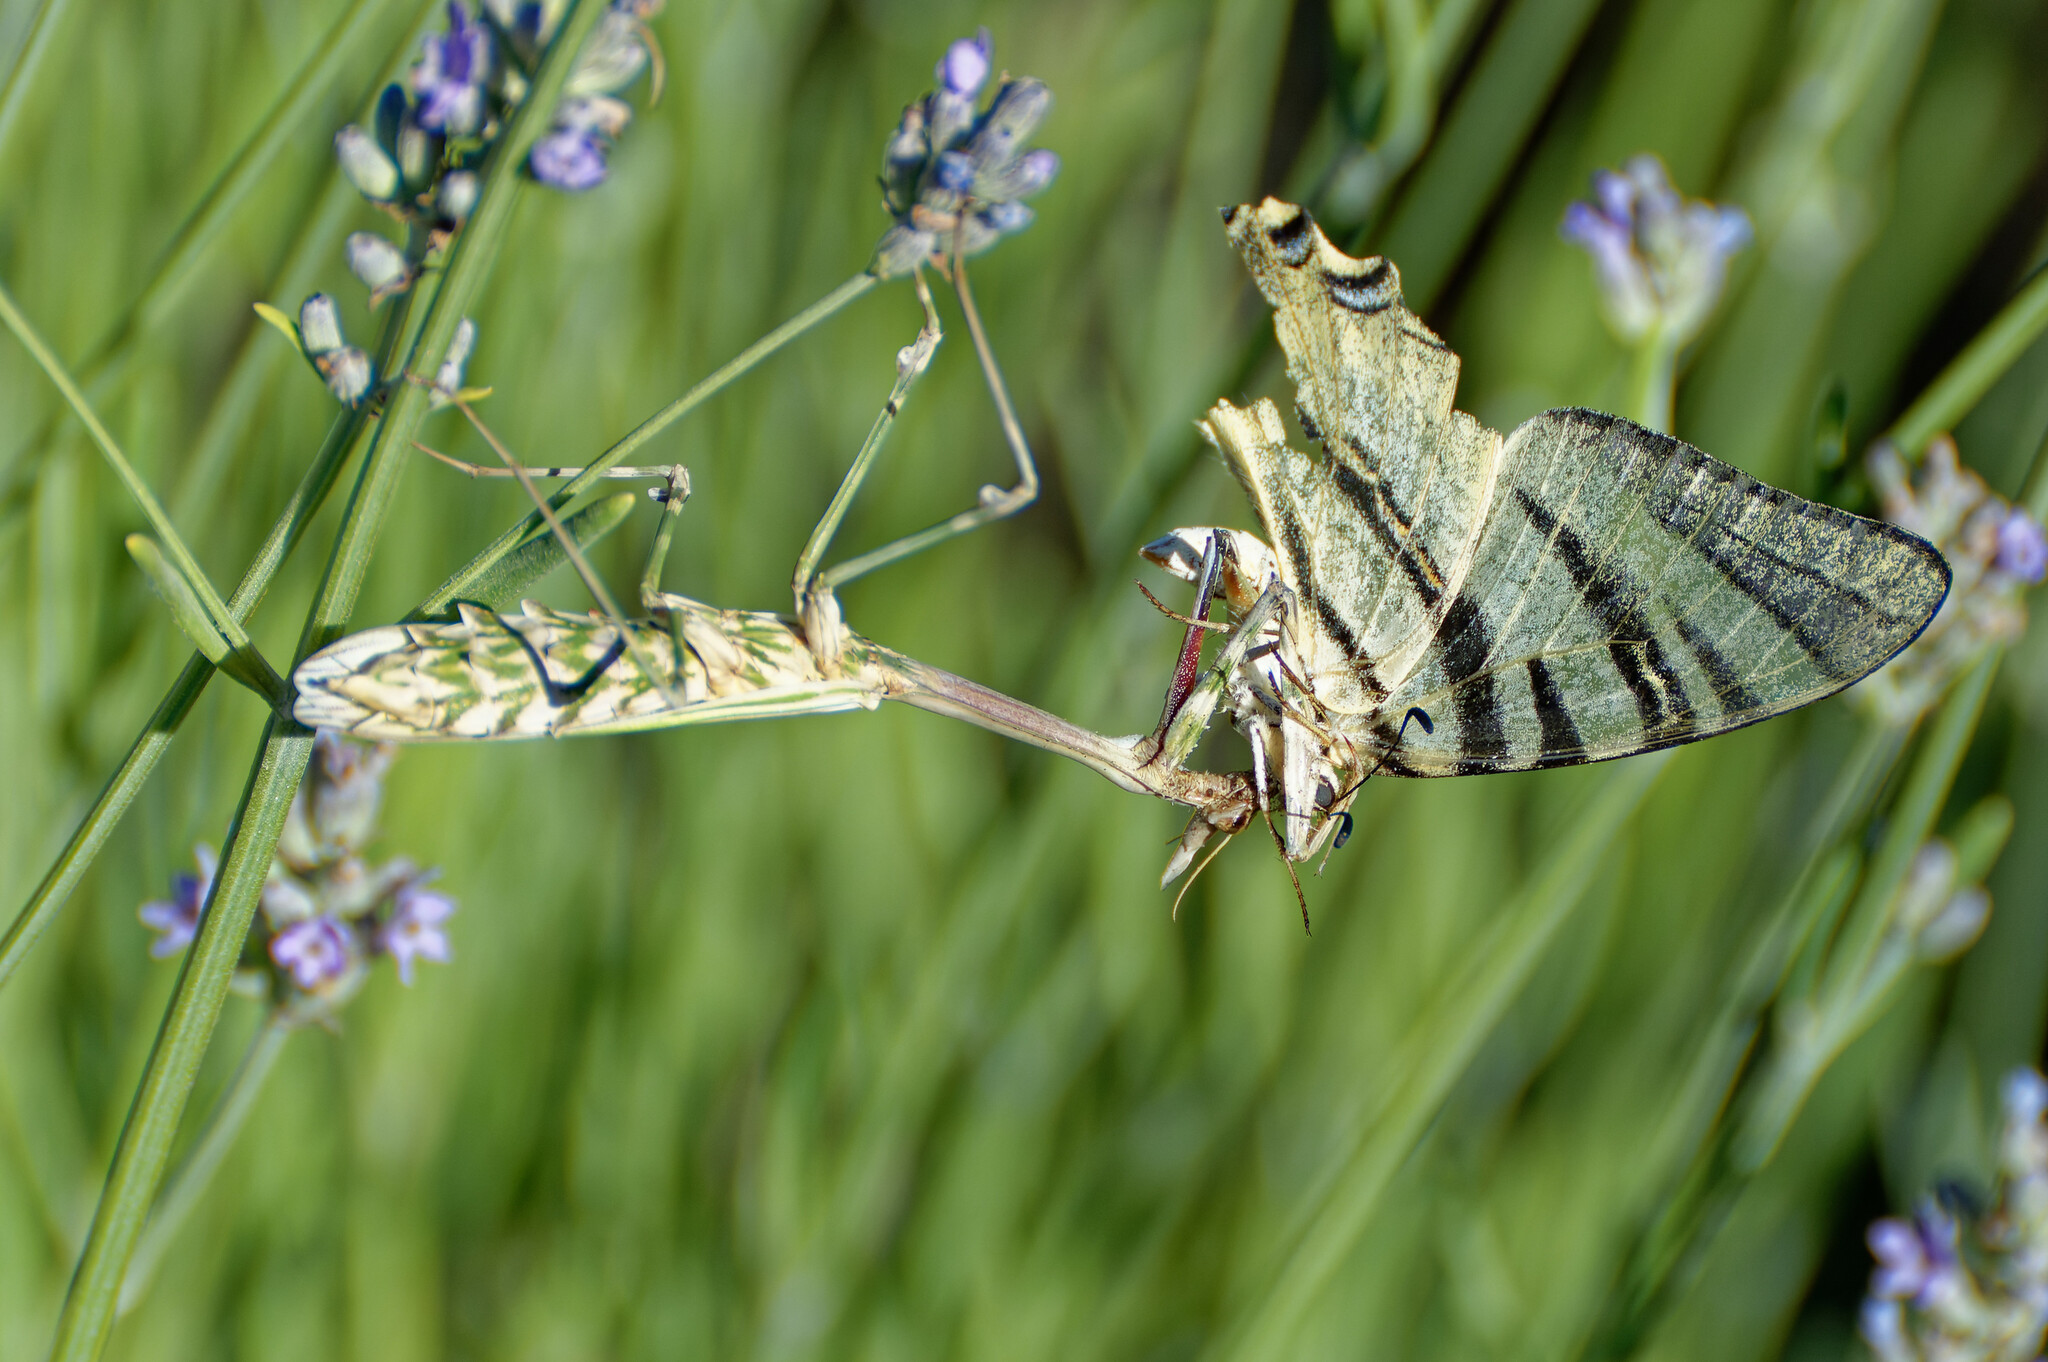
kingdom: Animalia
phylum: Arthropoda
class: Insecta
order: Mantodea
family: Empusidae
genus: Empusa
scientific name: Empusa pennata
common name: Conehead mantis
